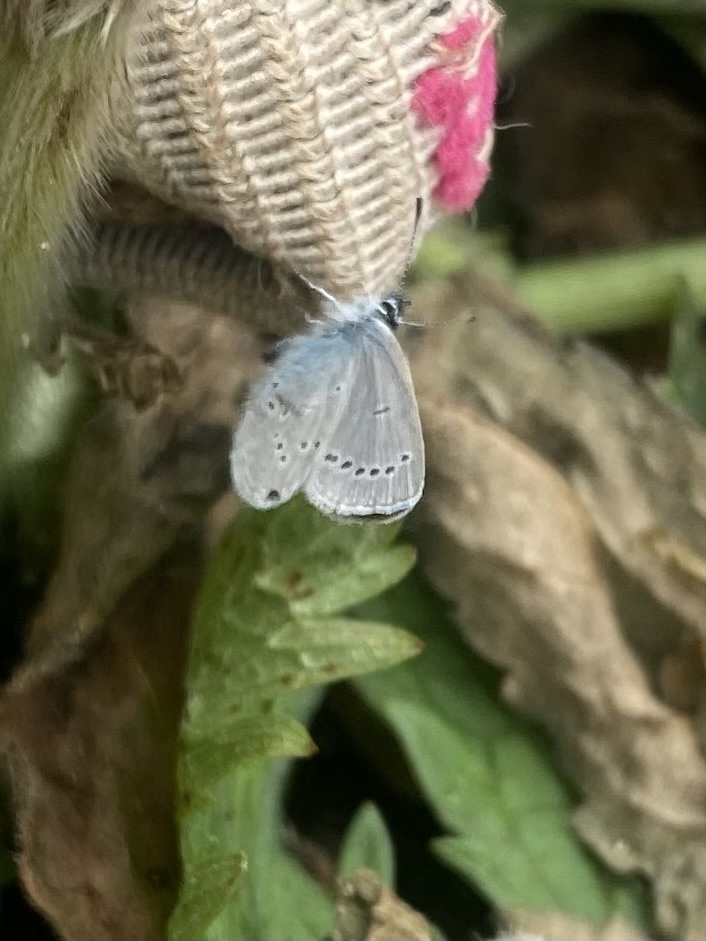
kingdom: Animalia
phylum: Arthropoda
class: Insecta
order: Lepidoptera
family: Lycaenidae
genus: Cupido
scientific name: Cupido minimus
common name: Small blue
